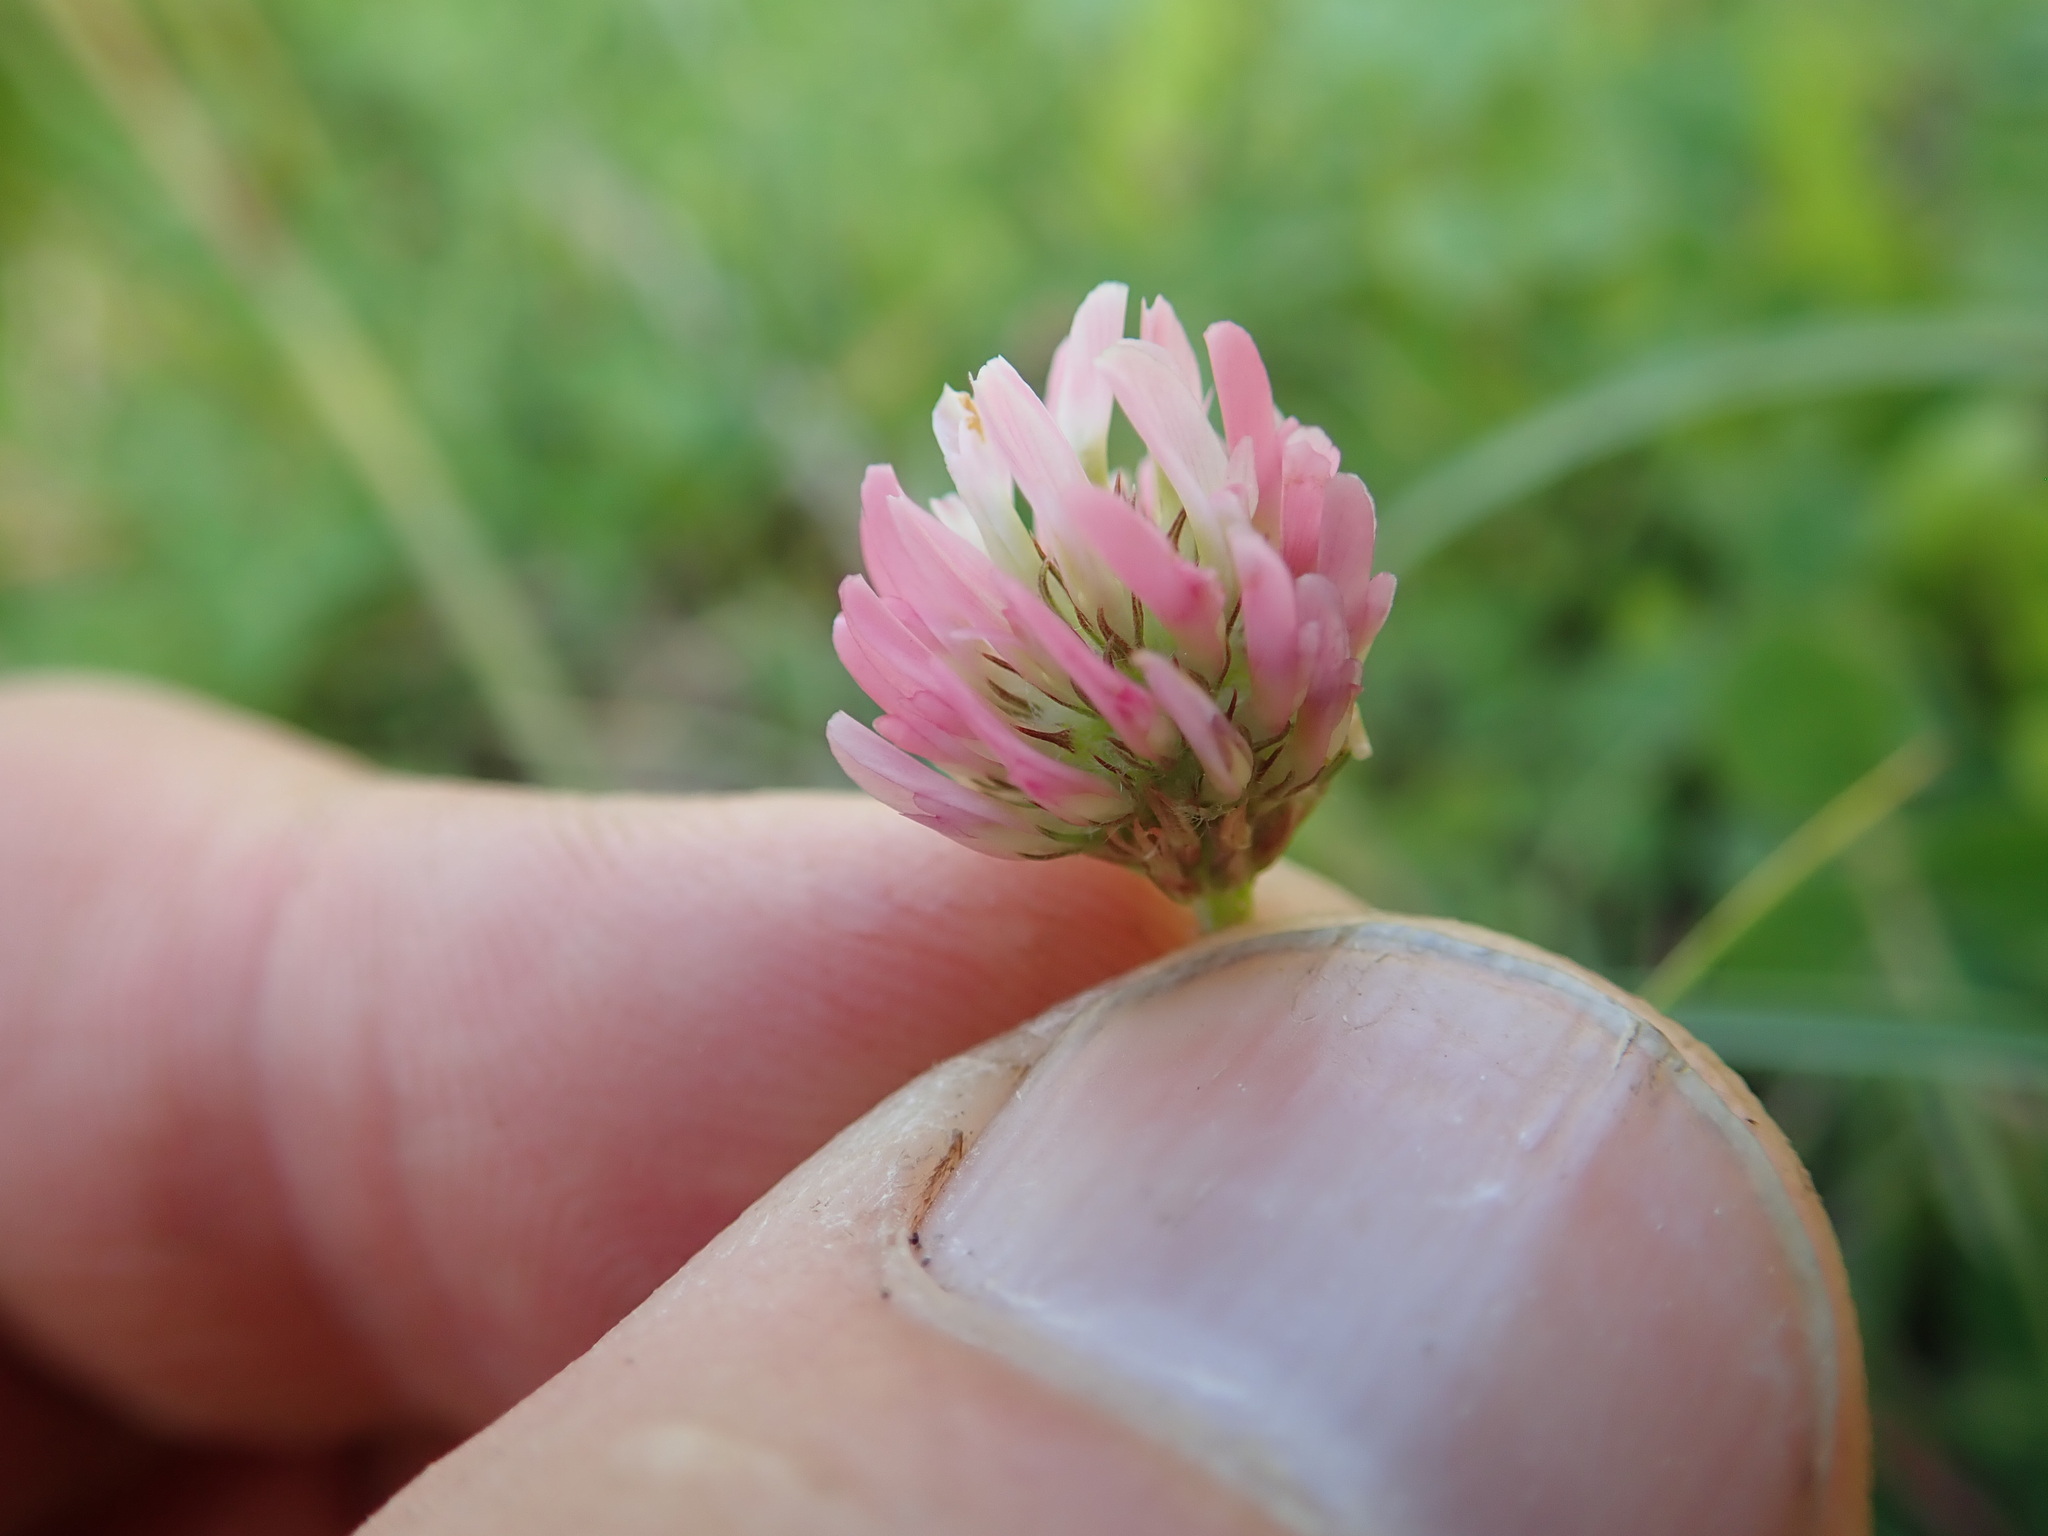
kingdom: Plantae
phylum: Tracheophyta
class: Magnoliopsida
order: Fabales
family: Fabaceae
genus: Trifolium
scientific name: Trifolium fragiferum
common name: Strawberry clover
